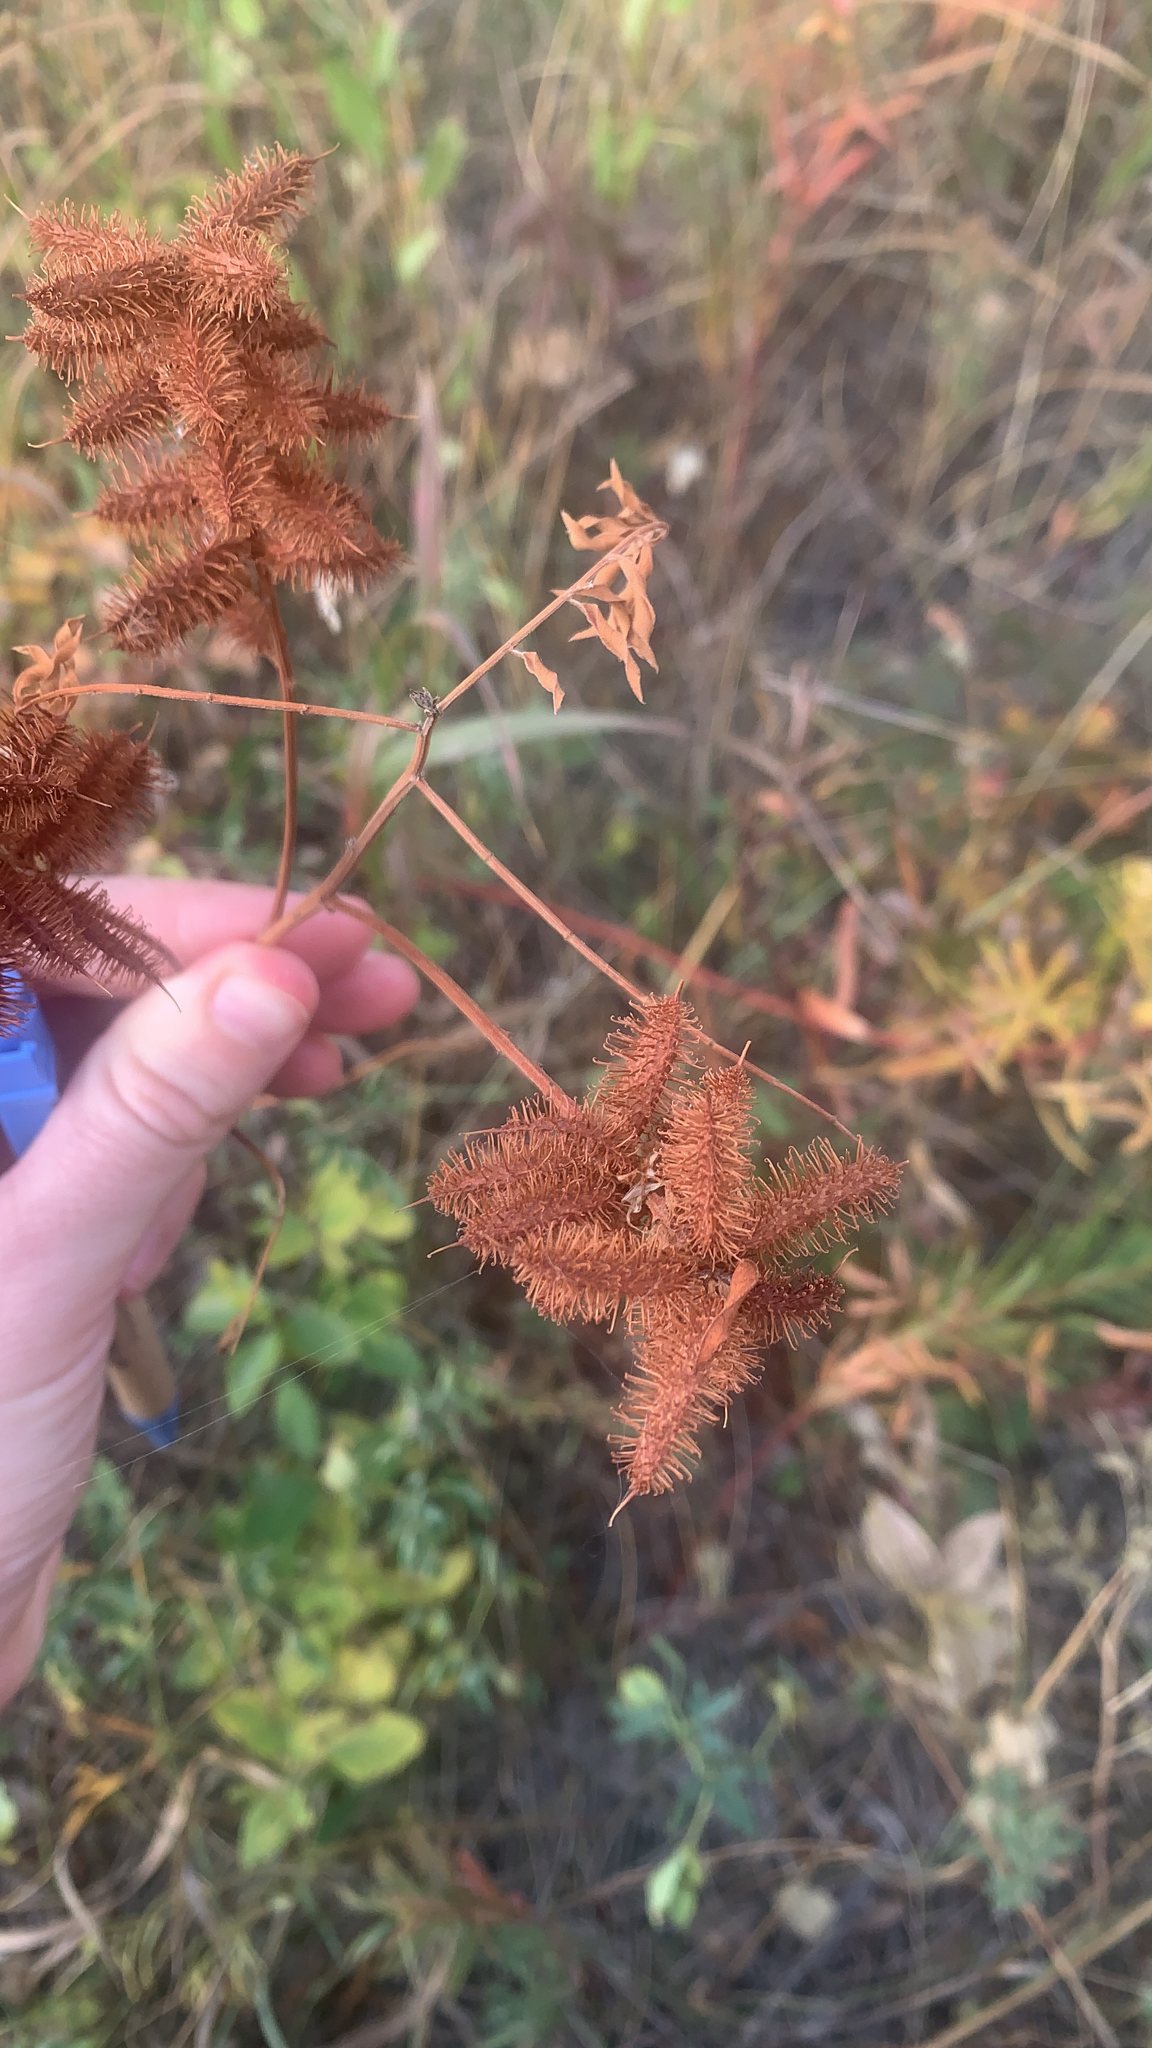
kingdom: Plantae
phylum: Tracheophyta
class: Magnoliopsida
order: Fabales
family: Fabaceae
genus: Glycyrrhiza
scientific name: Glycyrrhiza lepidota
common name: American liquorice
